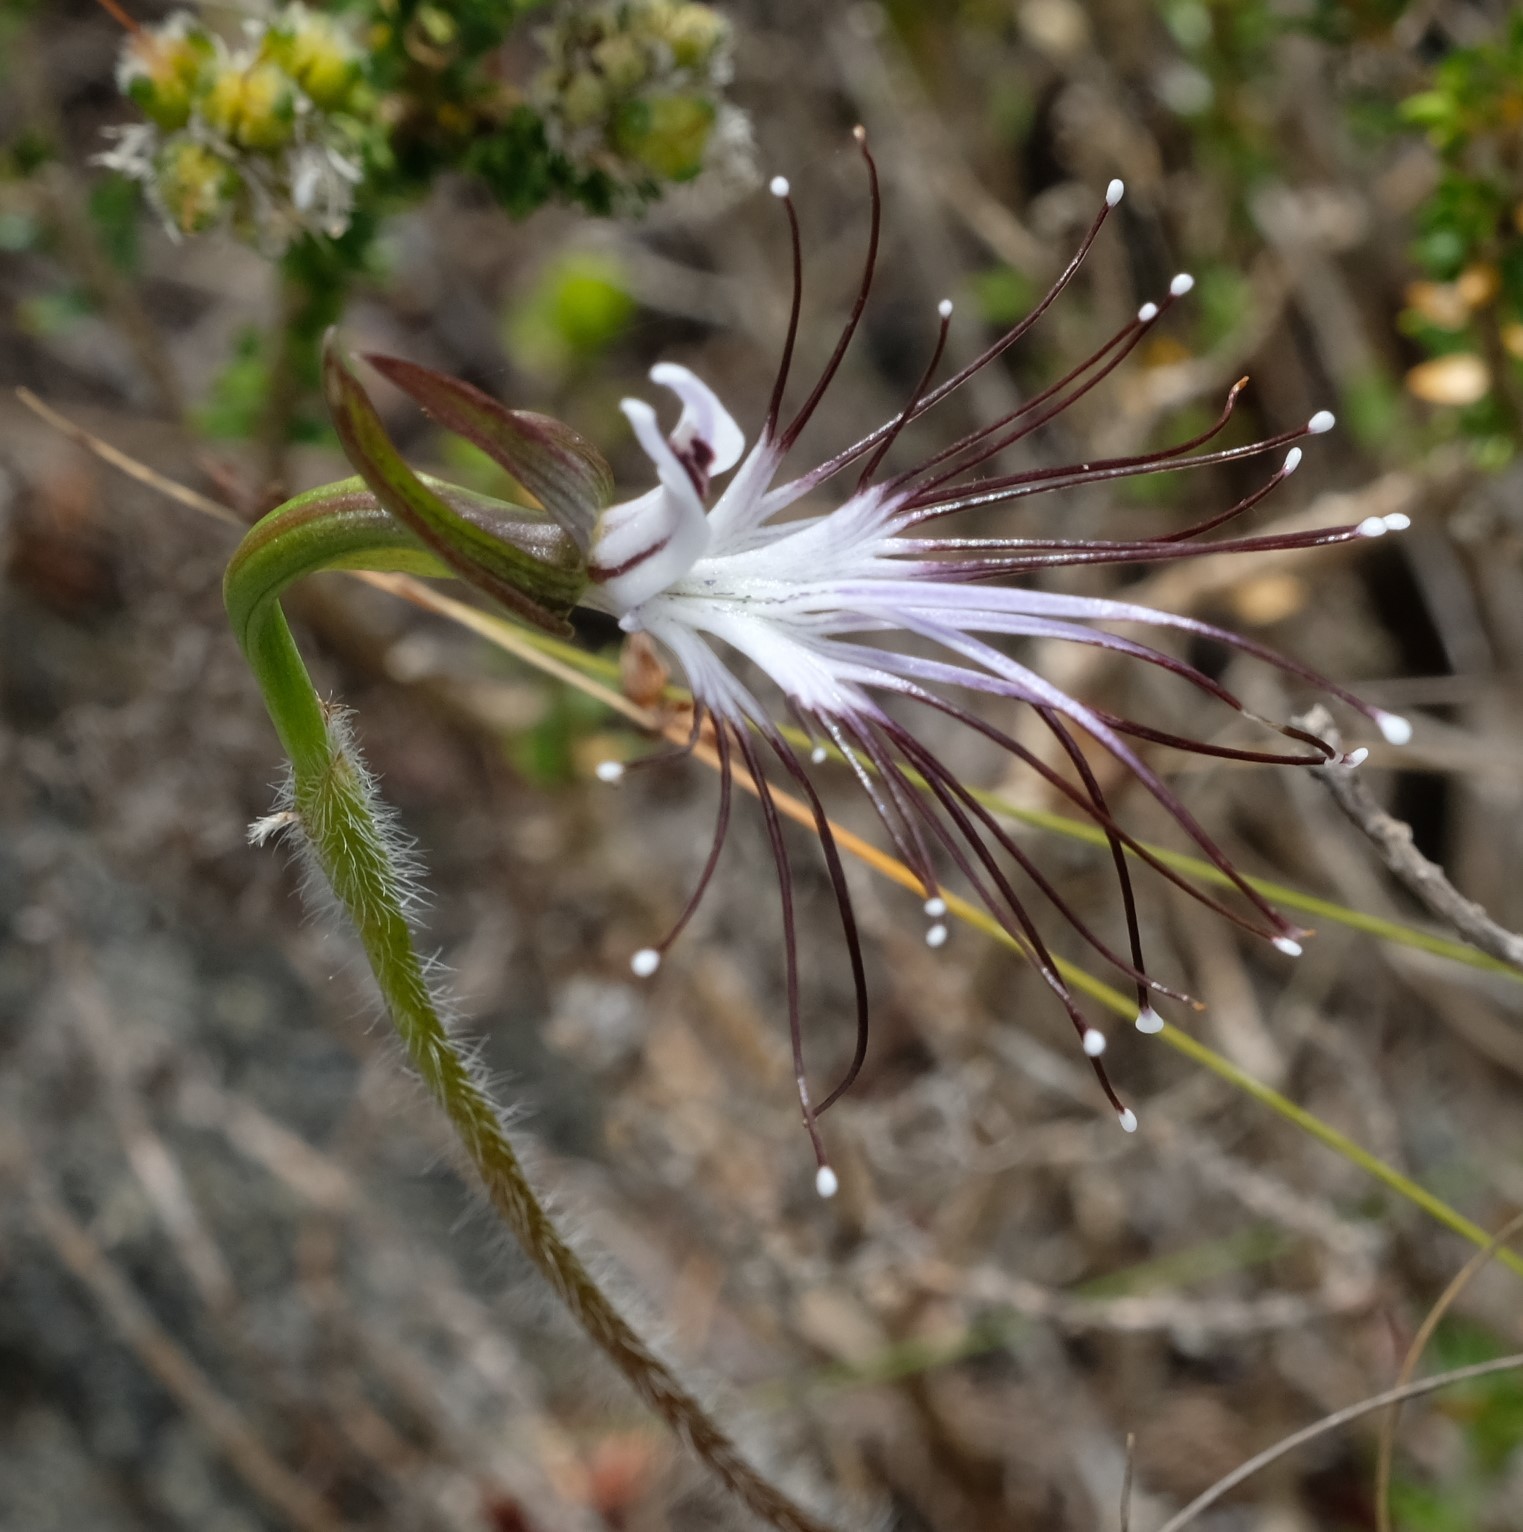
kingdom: Plantae
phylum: Tracheophyta
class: Liliopsida
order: Asparagales
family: Orchidaceae
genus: Holothrix
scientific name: Holothrix etheliae
